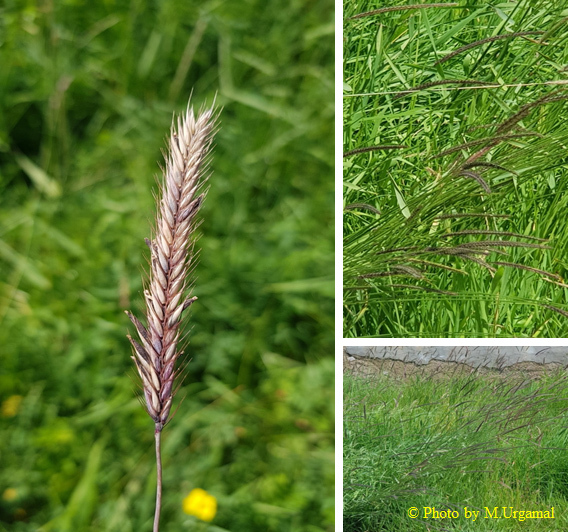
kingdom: Plantae
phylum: Tracheophyta
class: Liliopsida
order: Poales
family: Poaceae
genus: Hordeum
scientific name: Hordeum brevisubulatum
